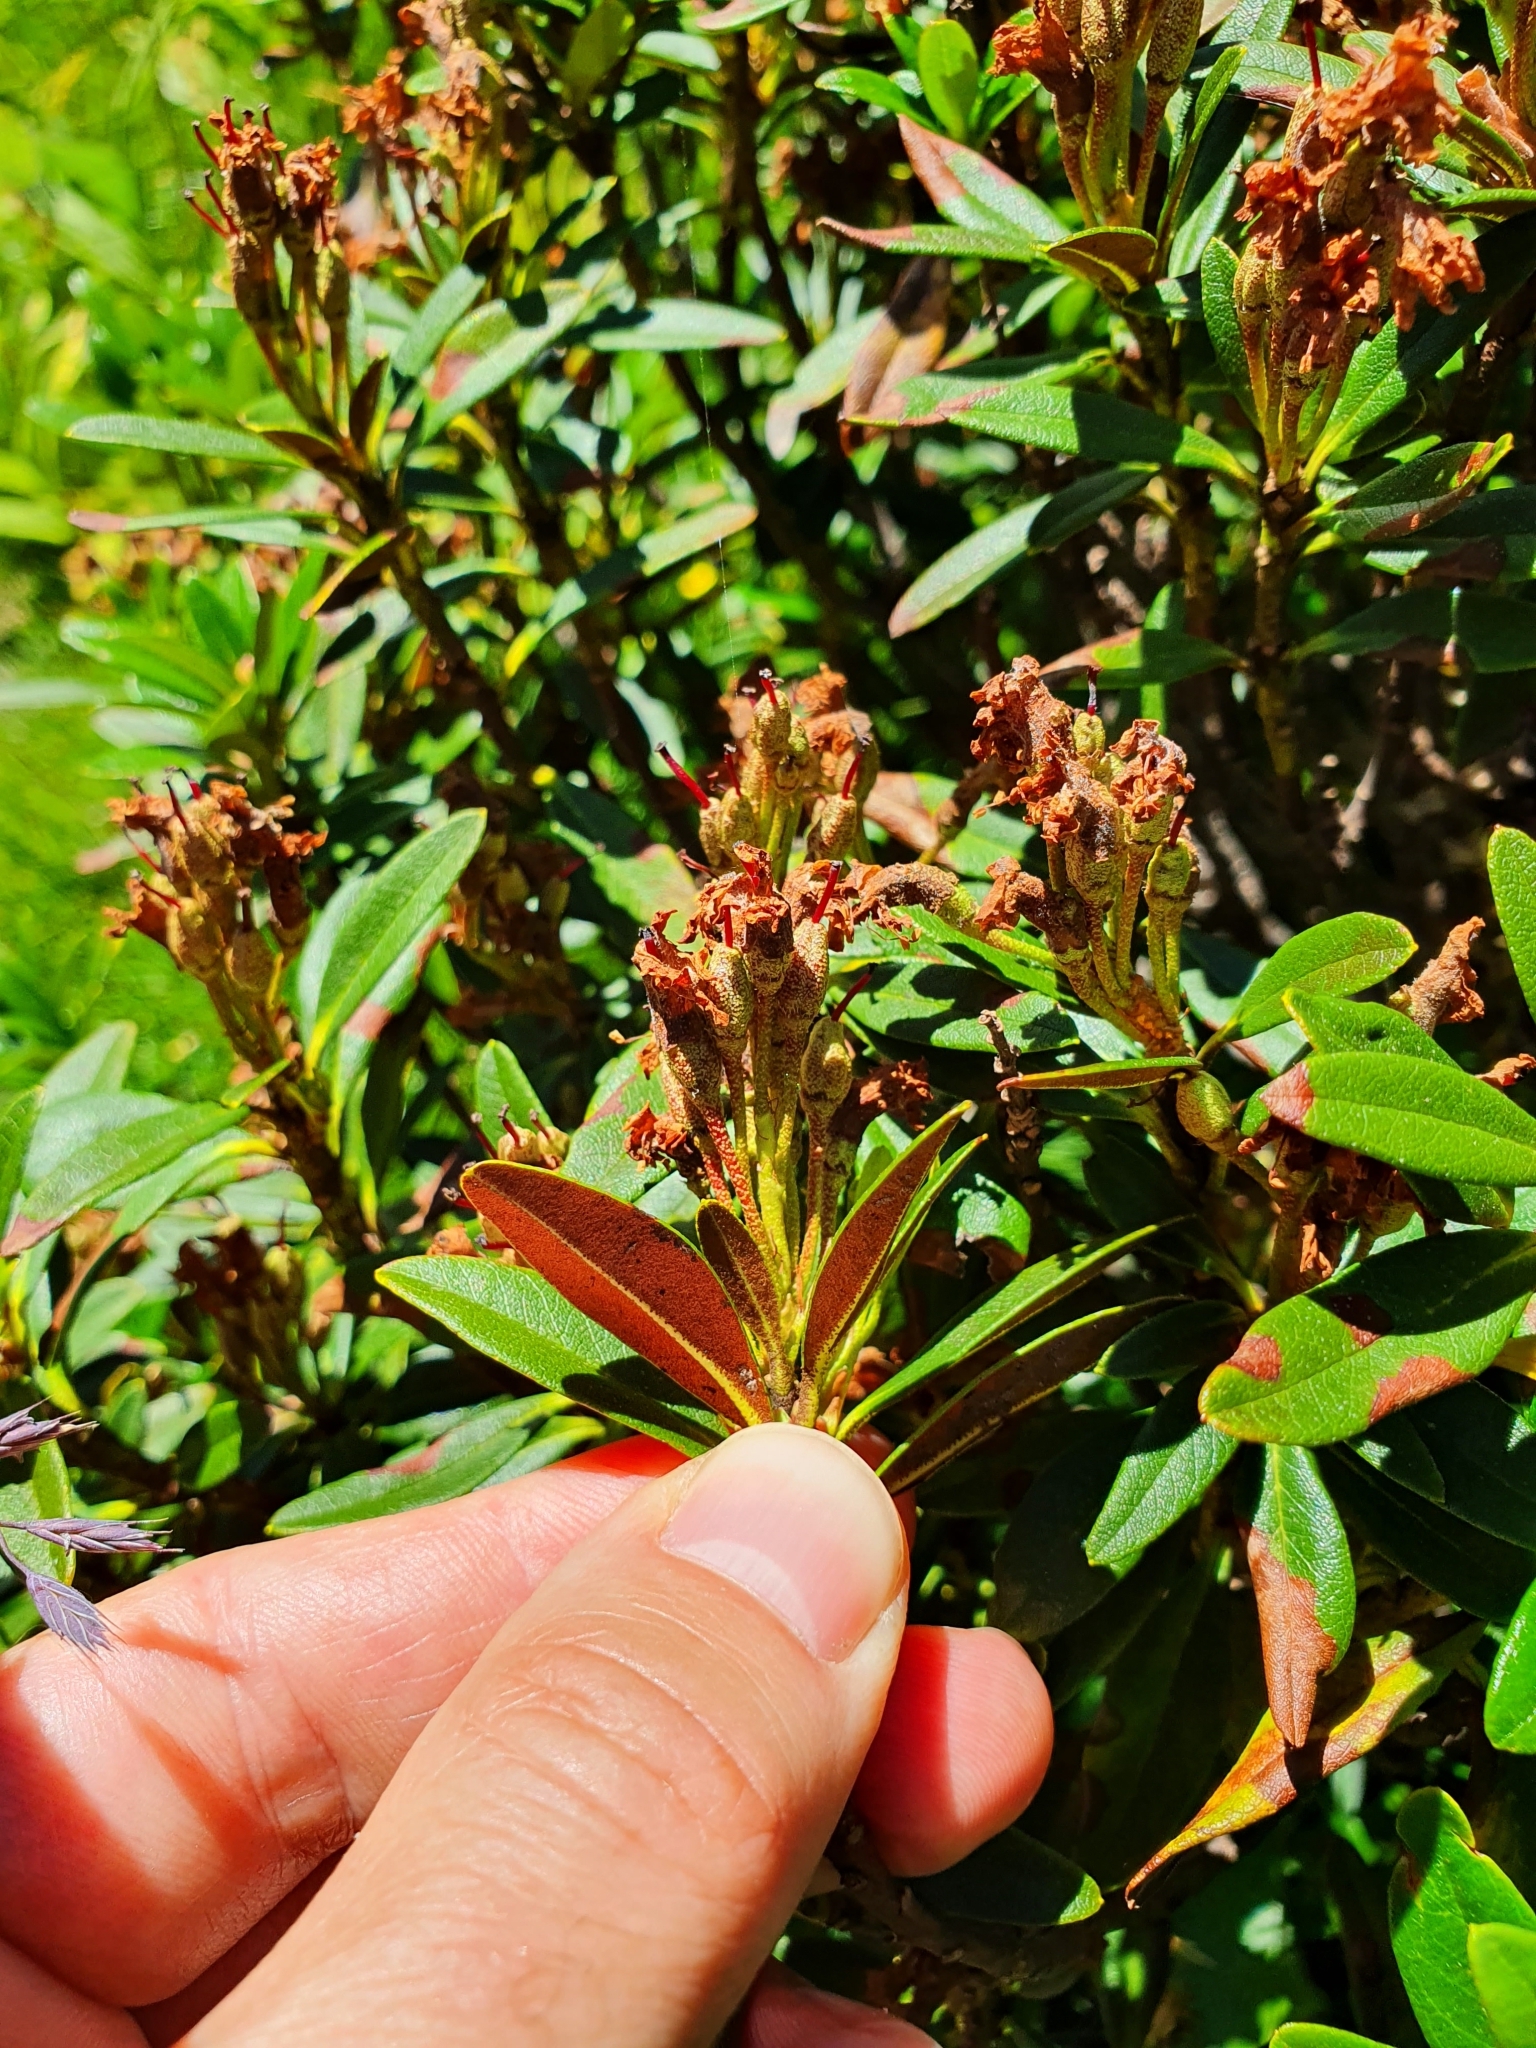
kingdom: Plantae
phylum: Tracheophyta
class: Magnoliopsida
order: Ericales
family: Ericaceae
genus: Rhododendron
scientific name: Rhododendron ferrugineum
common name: Alpenrose
